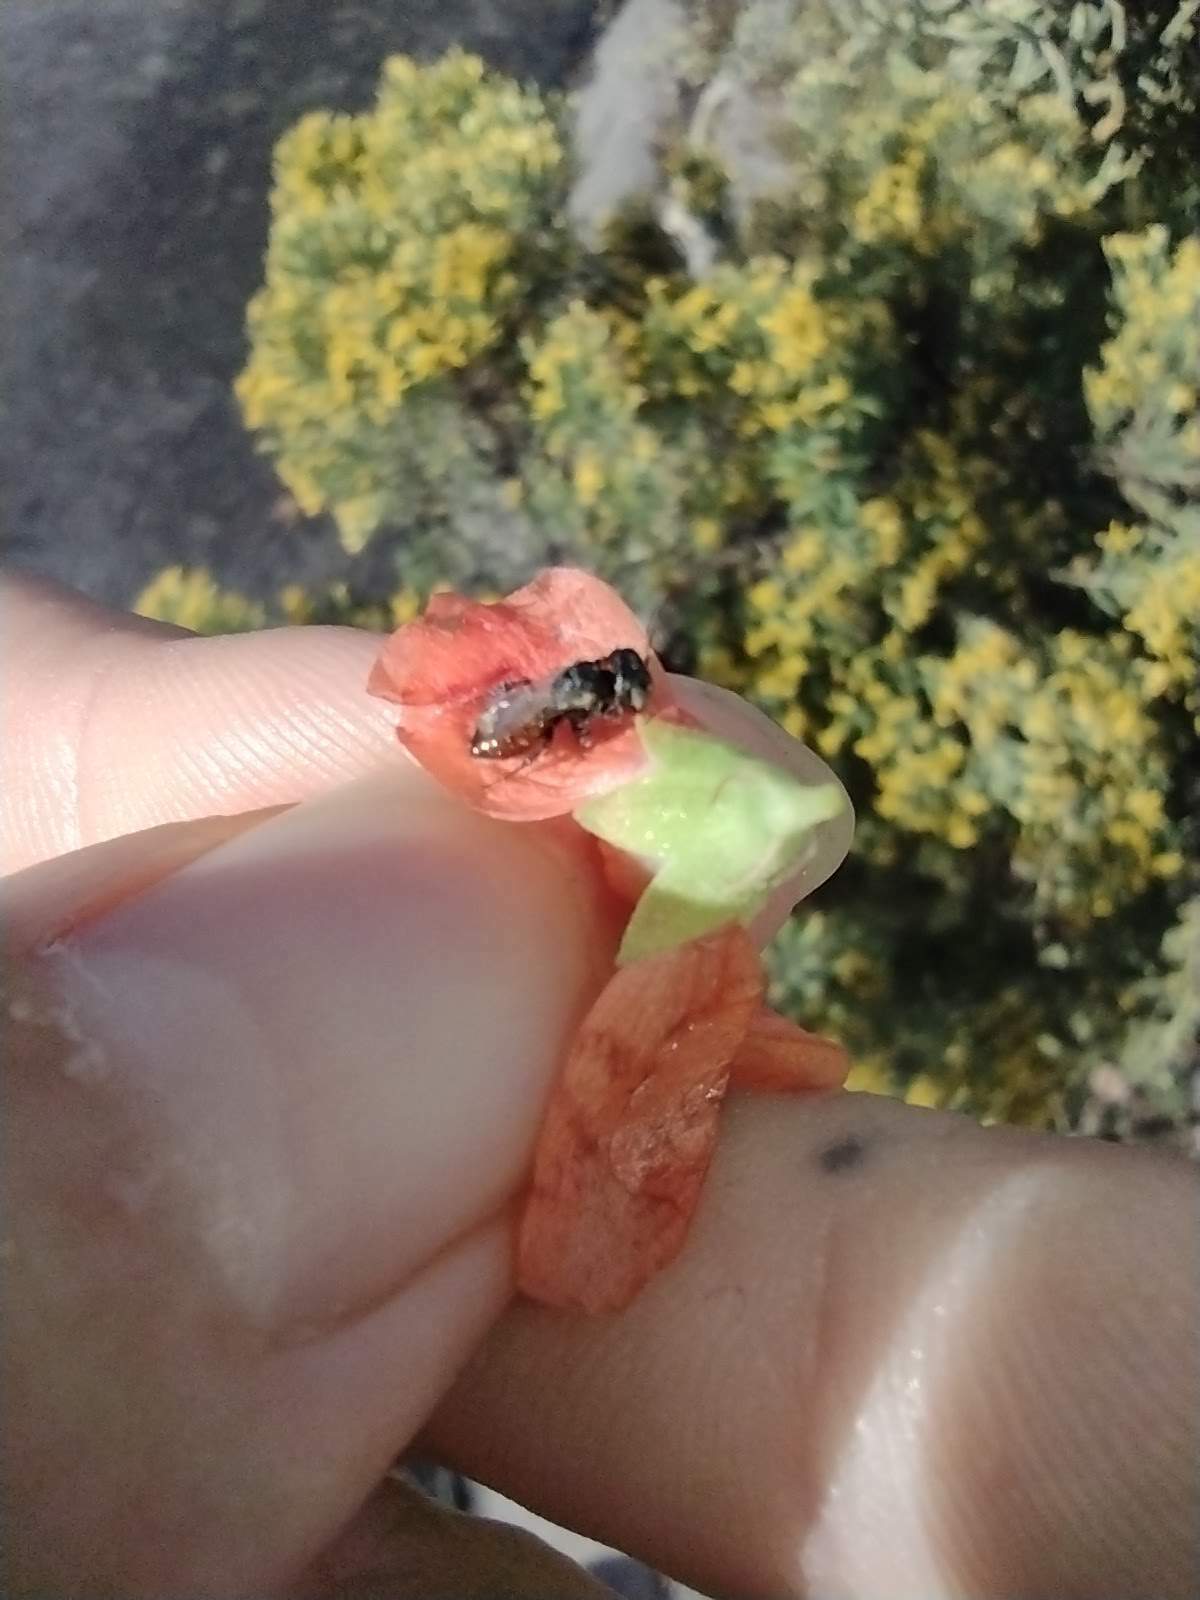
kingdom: Animalia
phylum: Arthropoda
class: Insecta
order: Hymenoptera
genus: Macroteropsis
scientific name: Macroteropsis
